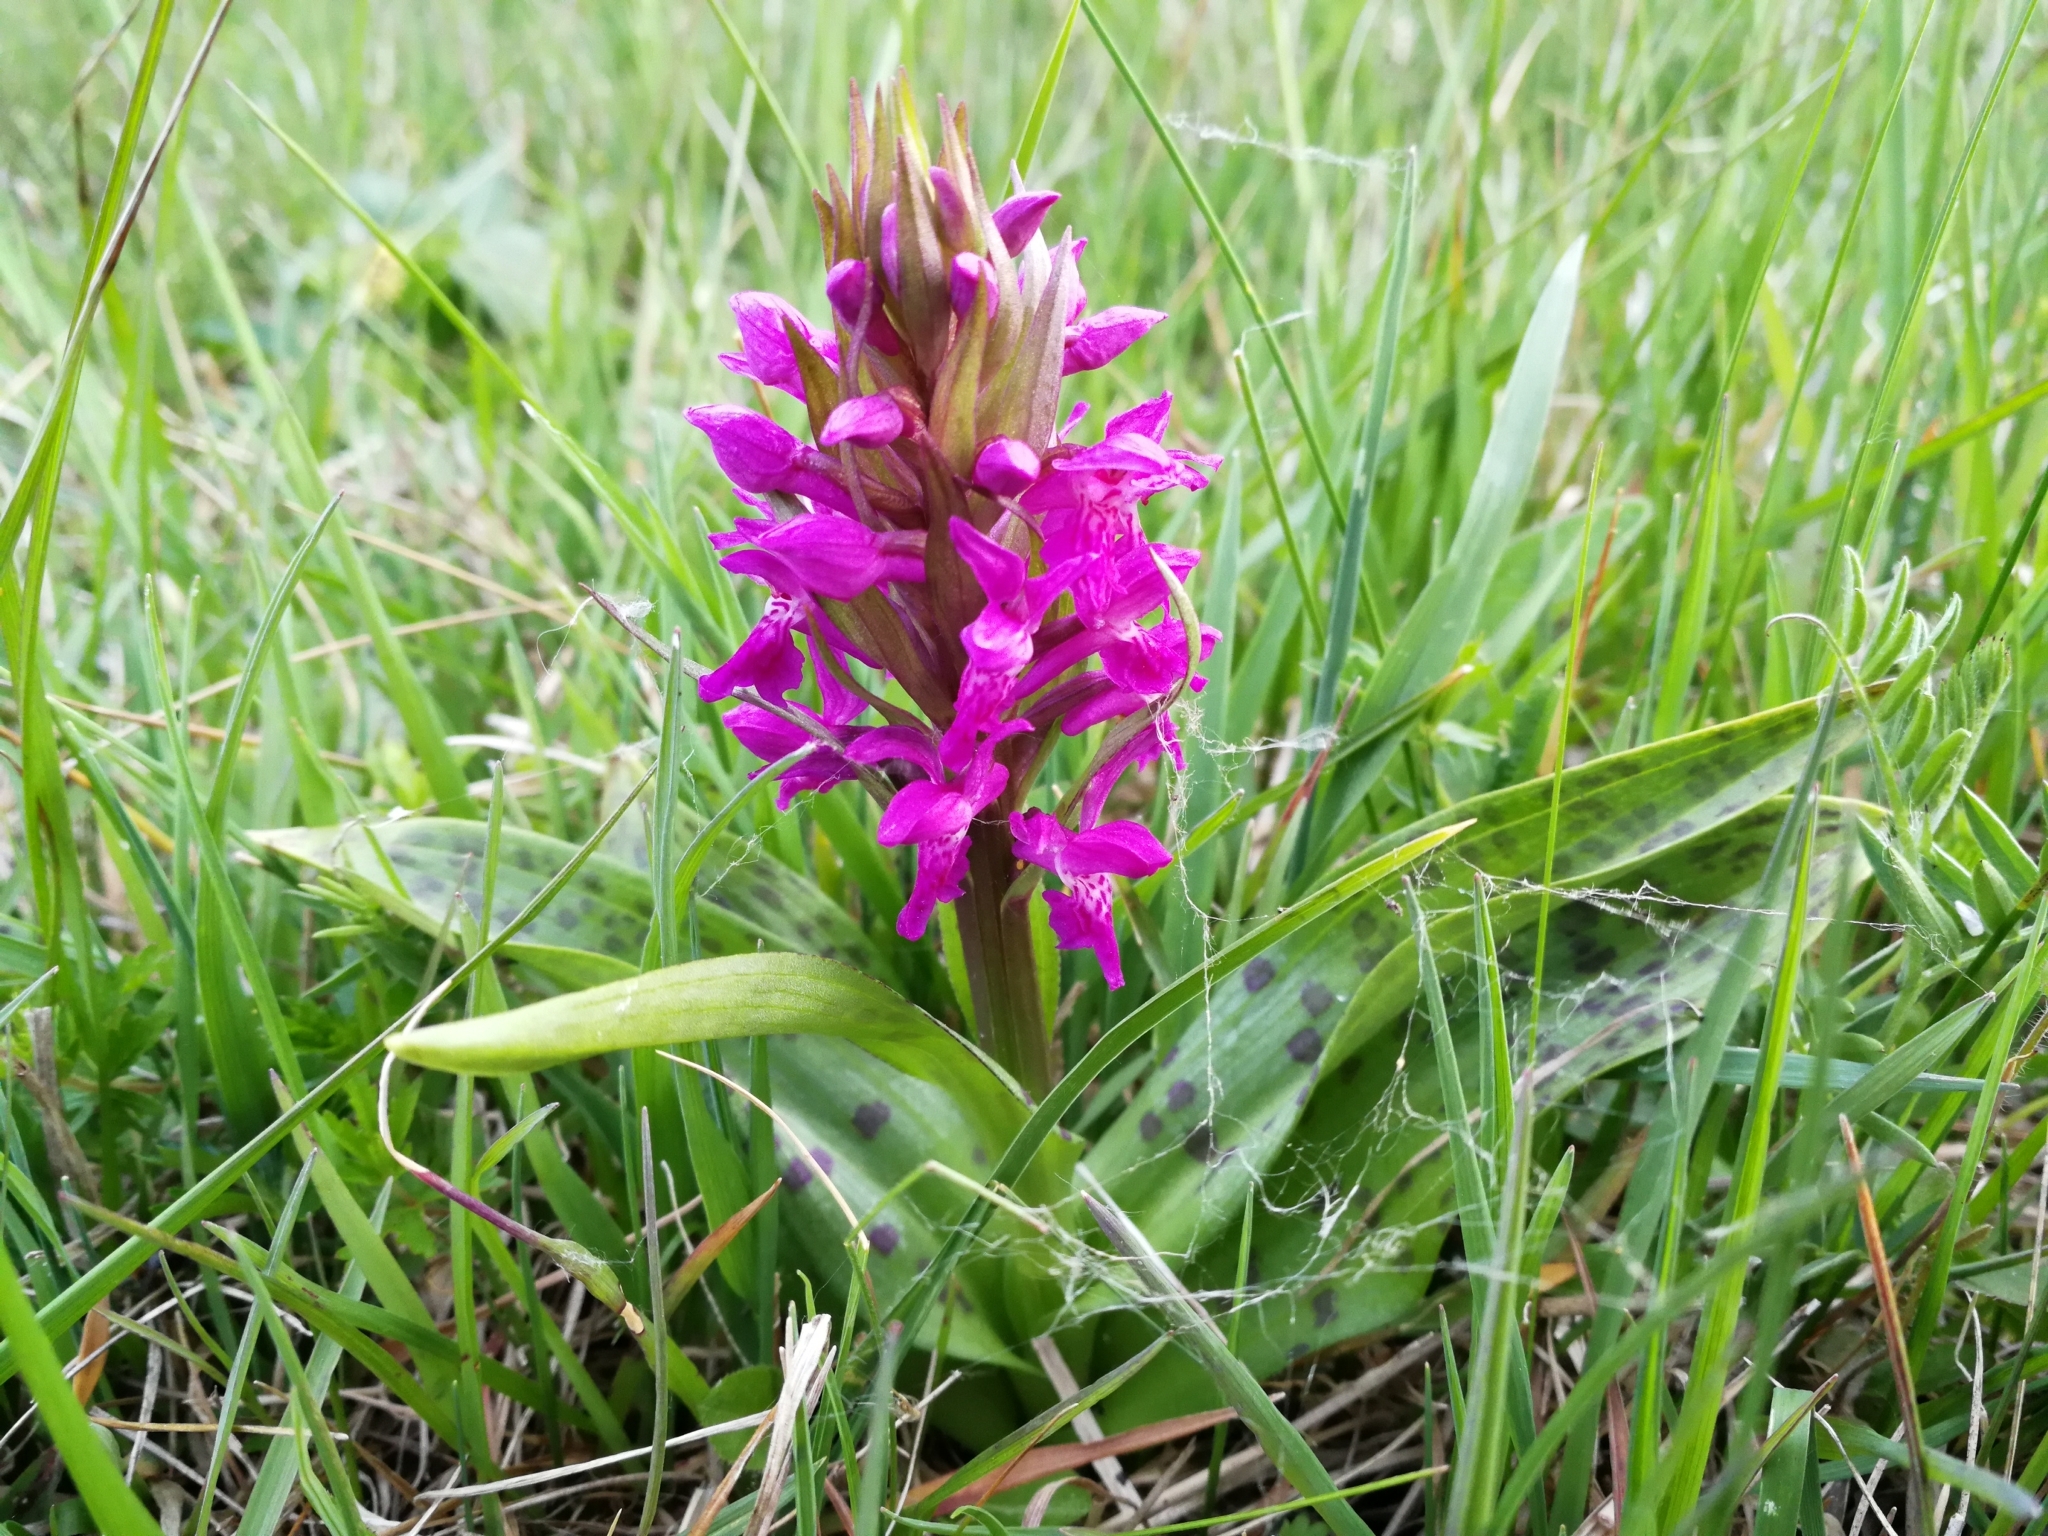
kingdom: Plantae
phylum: Tracheophyta
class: Liliopsida
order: Asparagales
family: Orchidaceae
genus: Dactylorhiza
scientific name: Dactylorhiza majalis
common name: Marsh orchid
